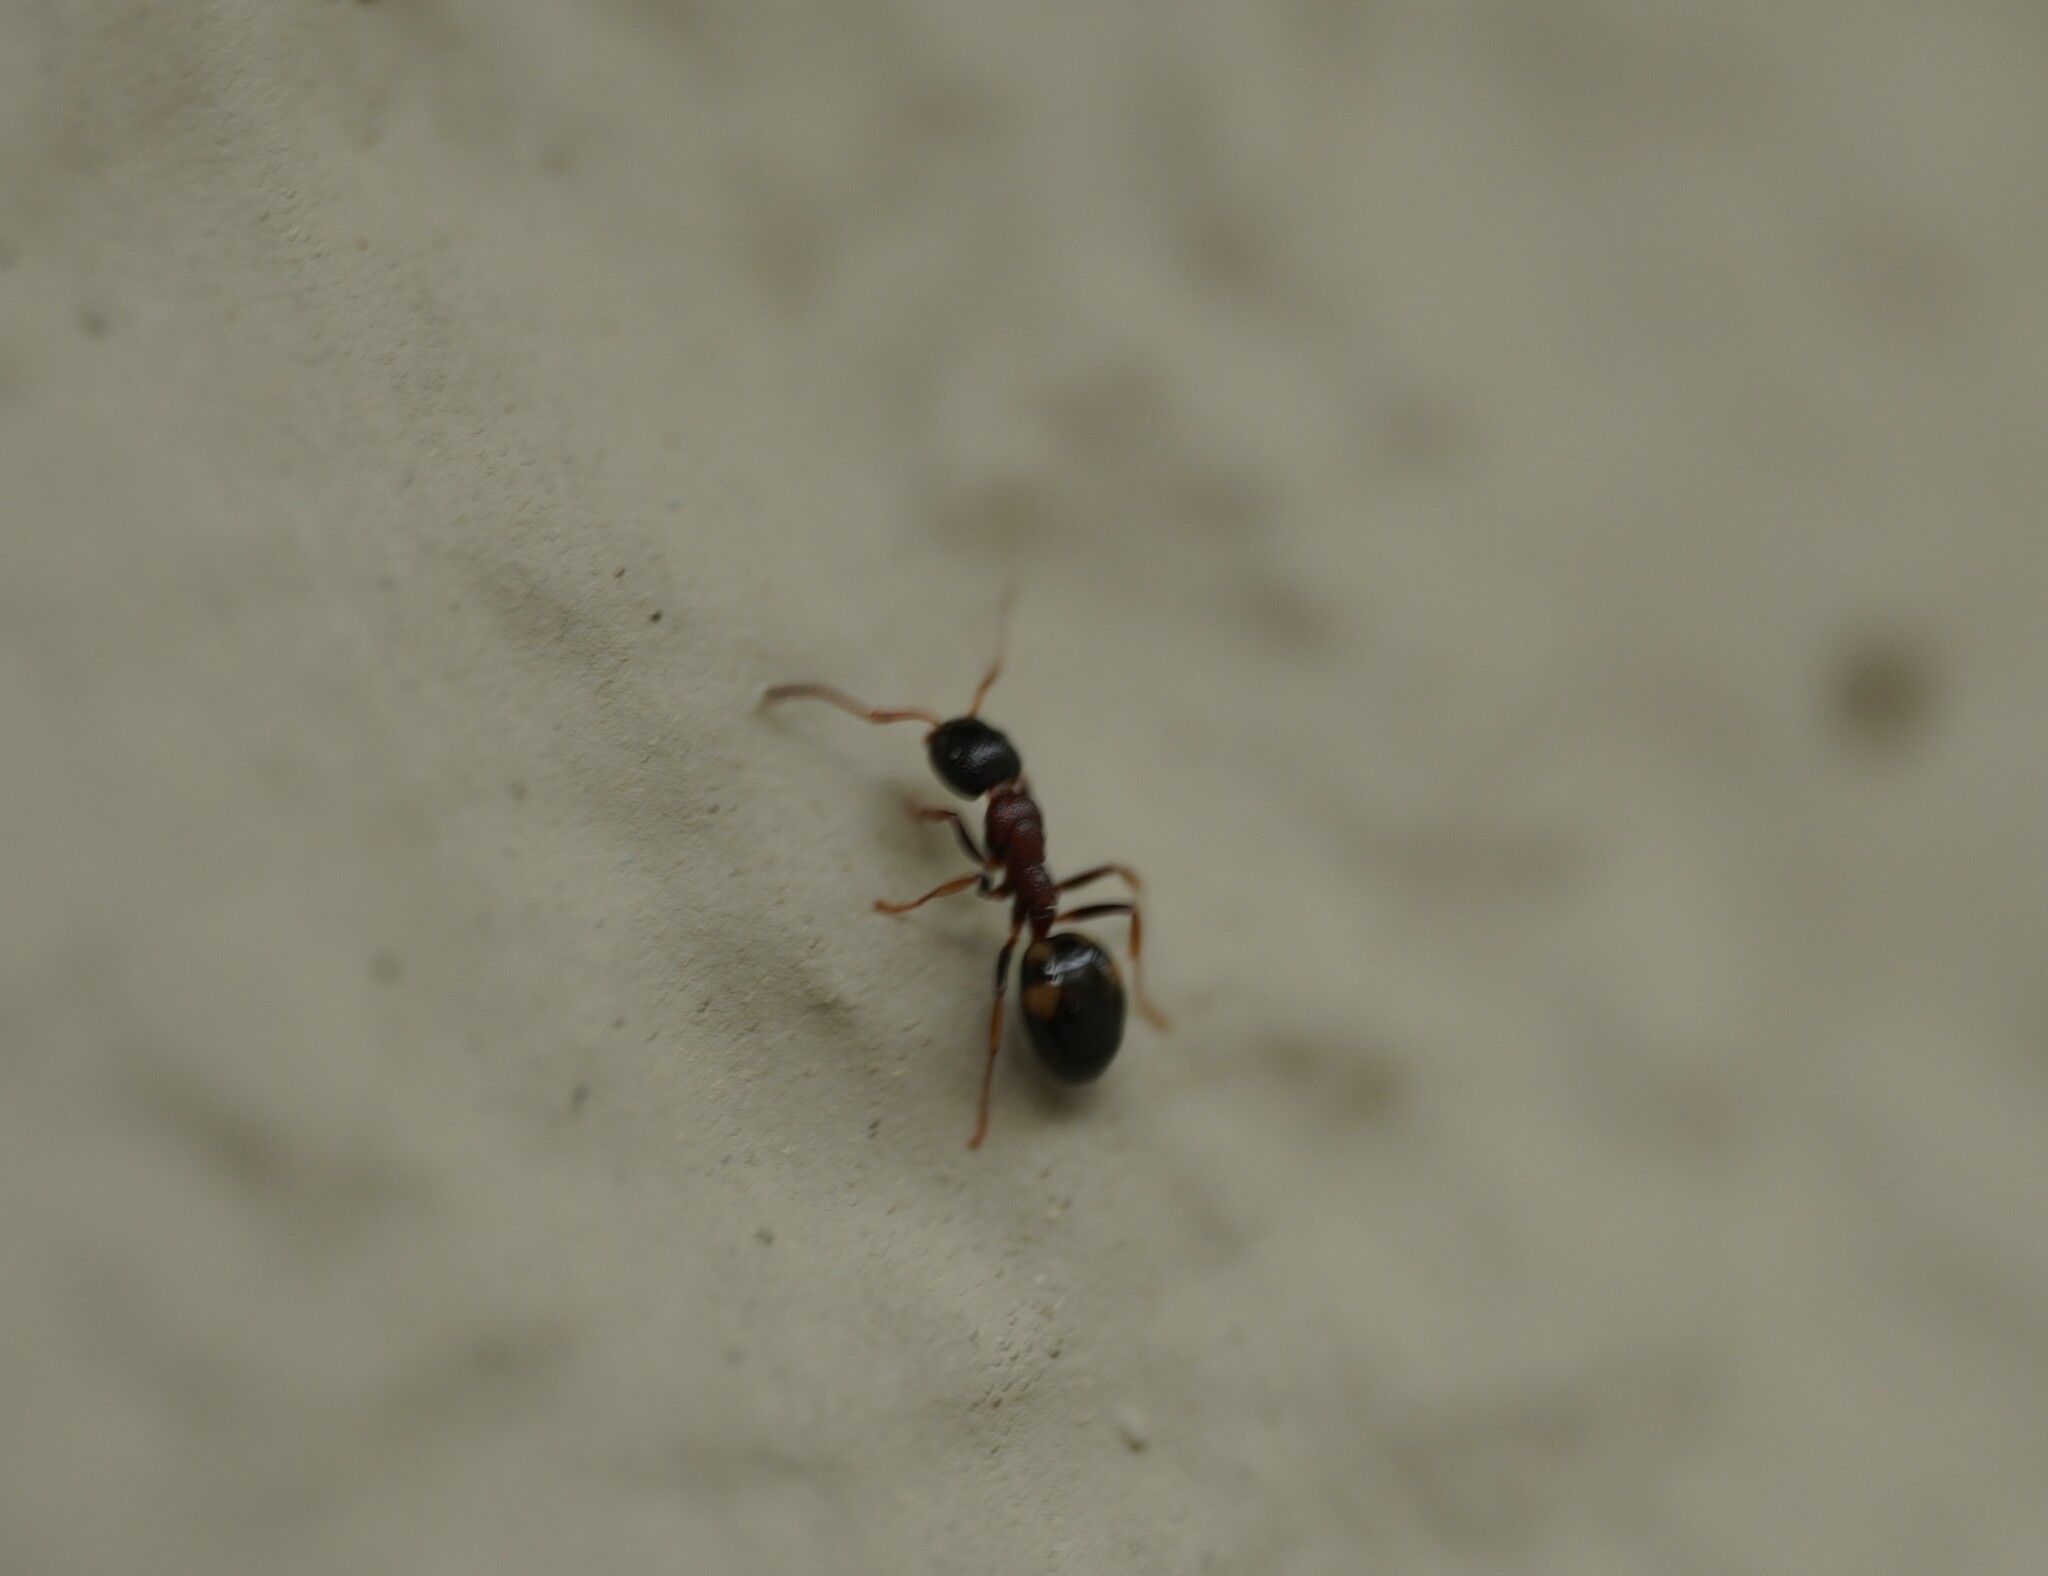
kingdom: Animalia
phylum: Arthropoda
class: Insecta
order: Hymenoptera
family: Formicidae
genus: Dolichoderus
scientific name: Dolichoderus quadripunctatus
